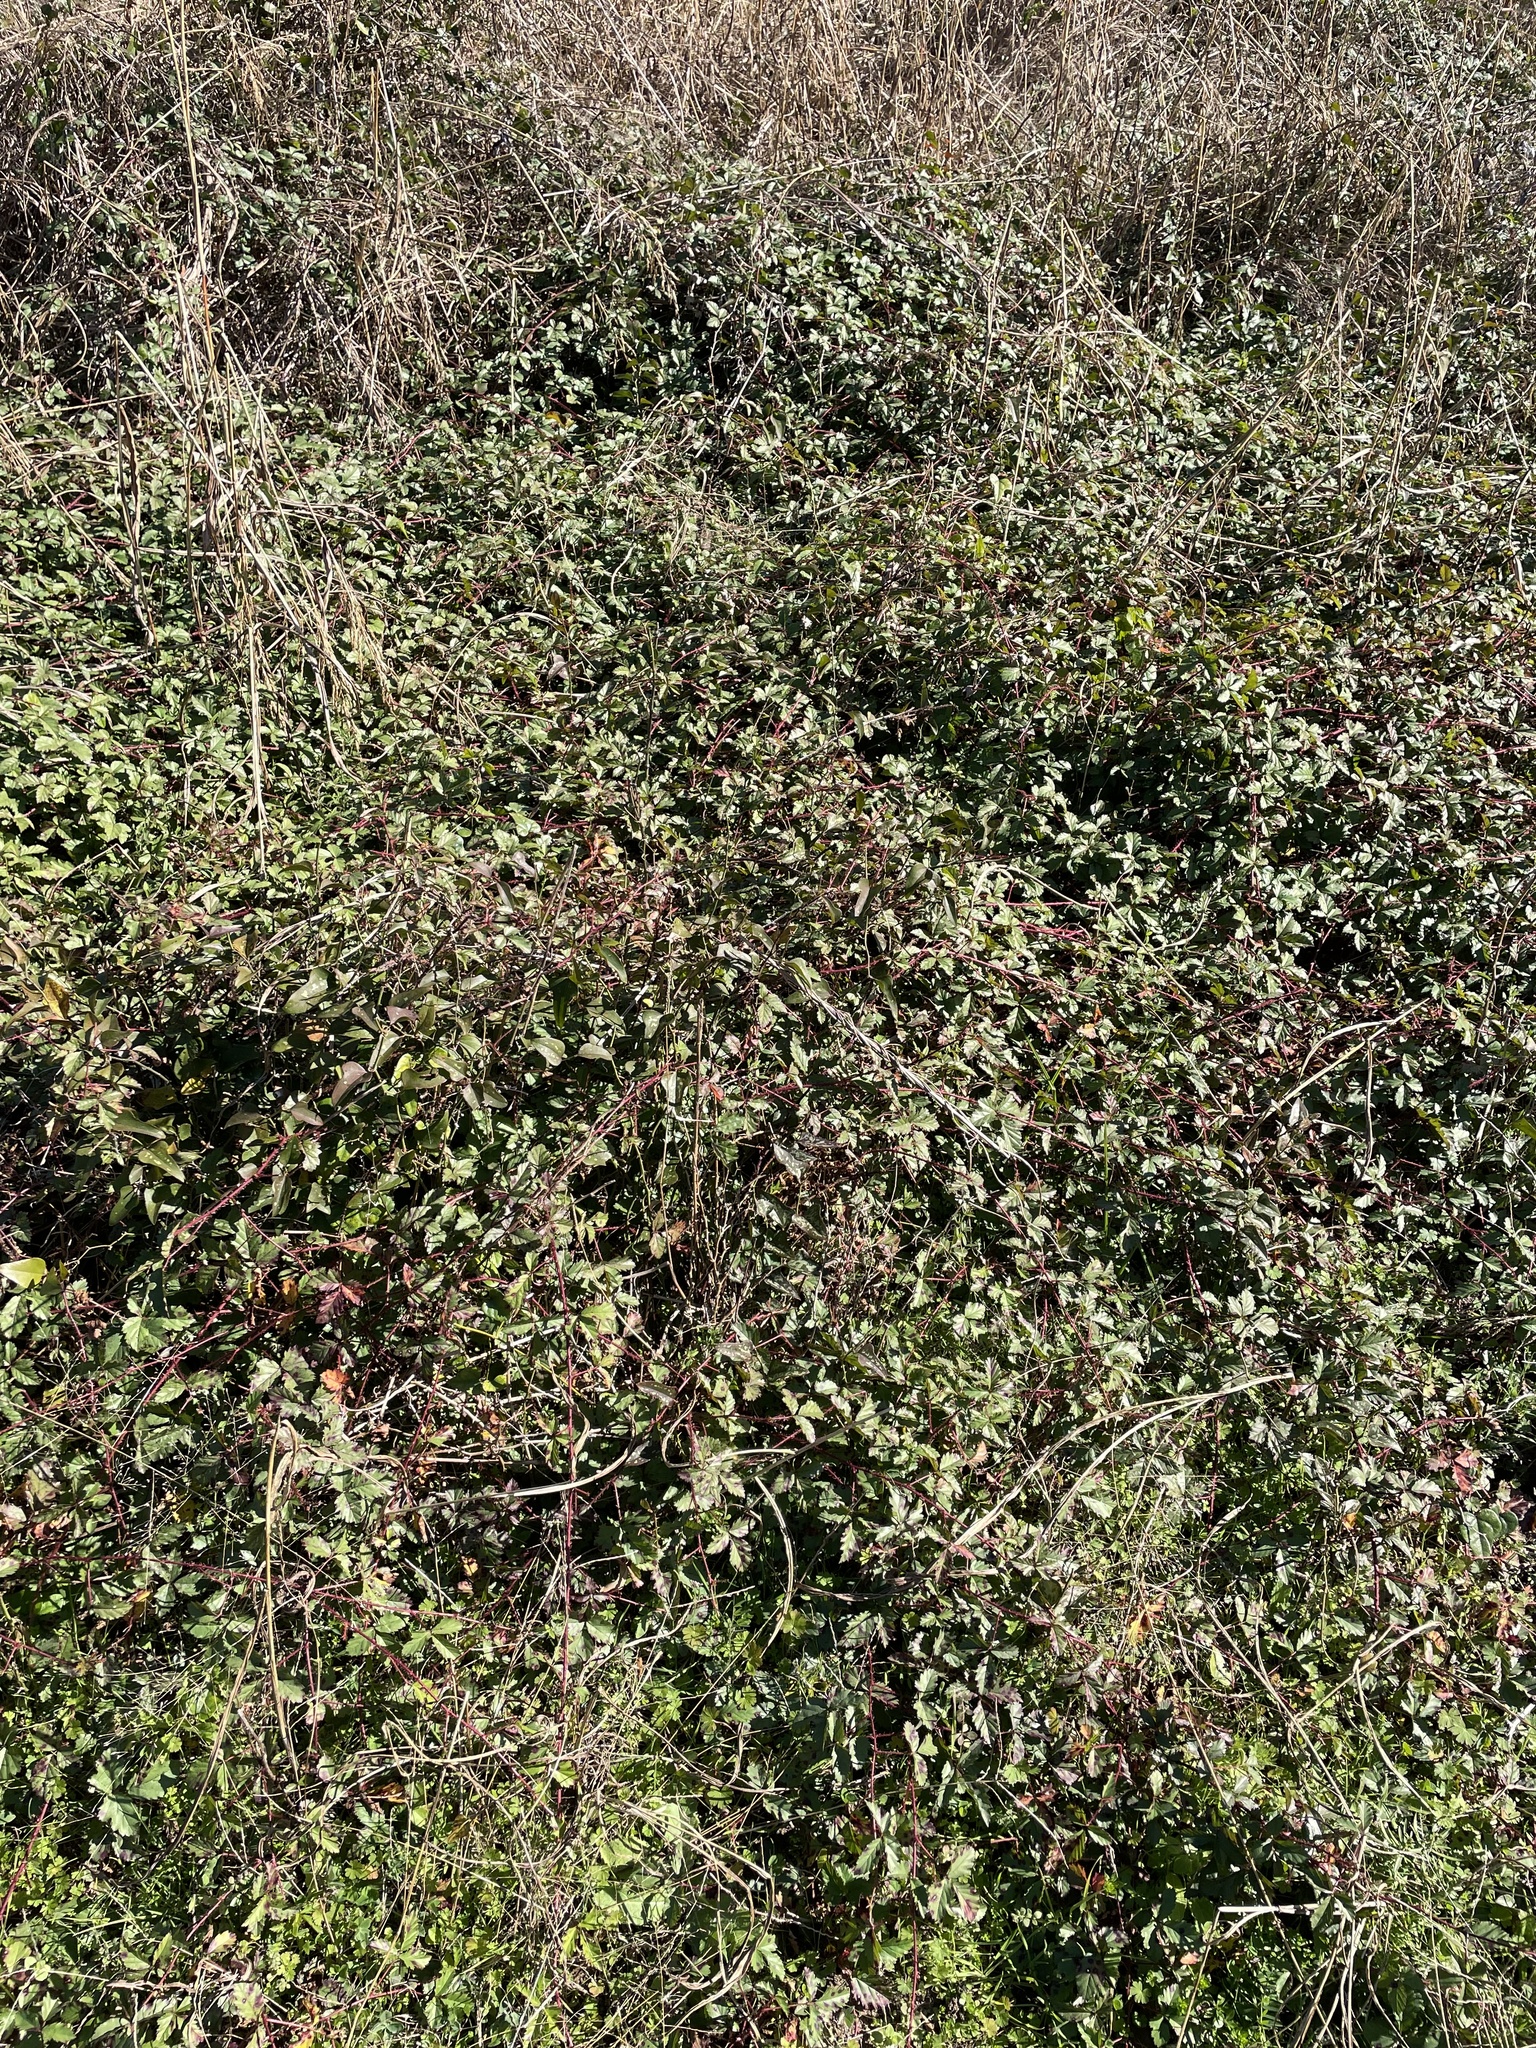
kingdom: Plantae
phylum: Tracheophyta
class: Magnoliopsida
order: Rosales
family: Rosaceae
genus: Rubus
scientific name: Rubus trivialis
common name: Southern dewberry
